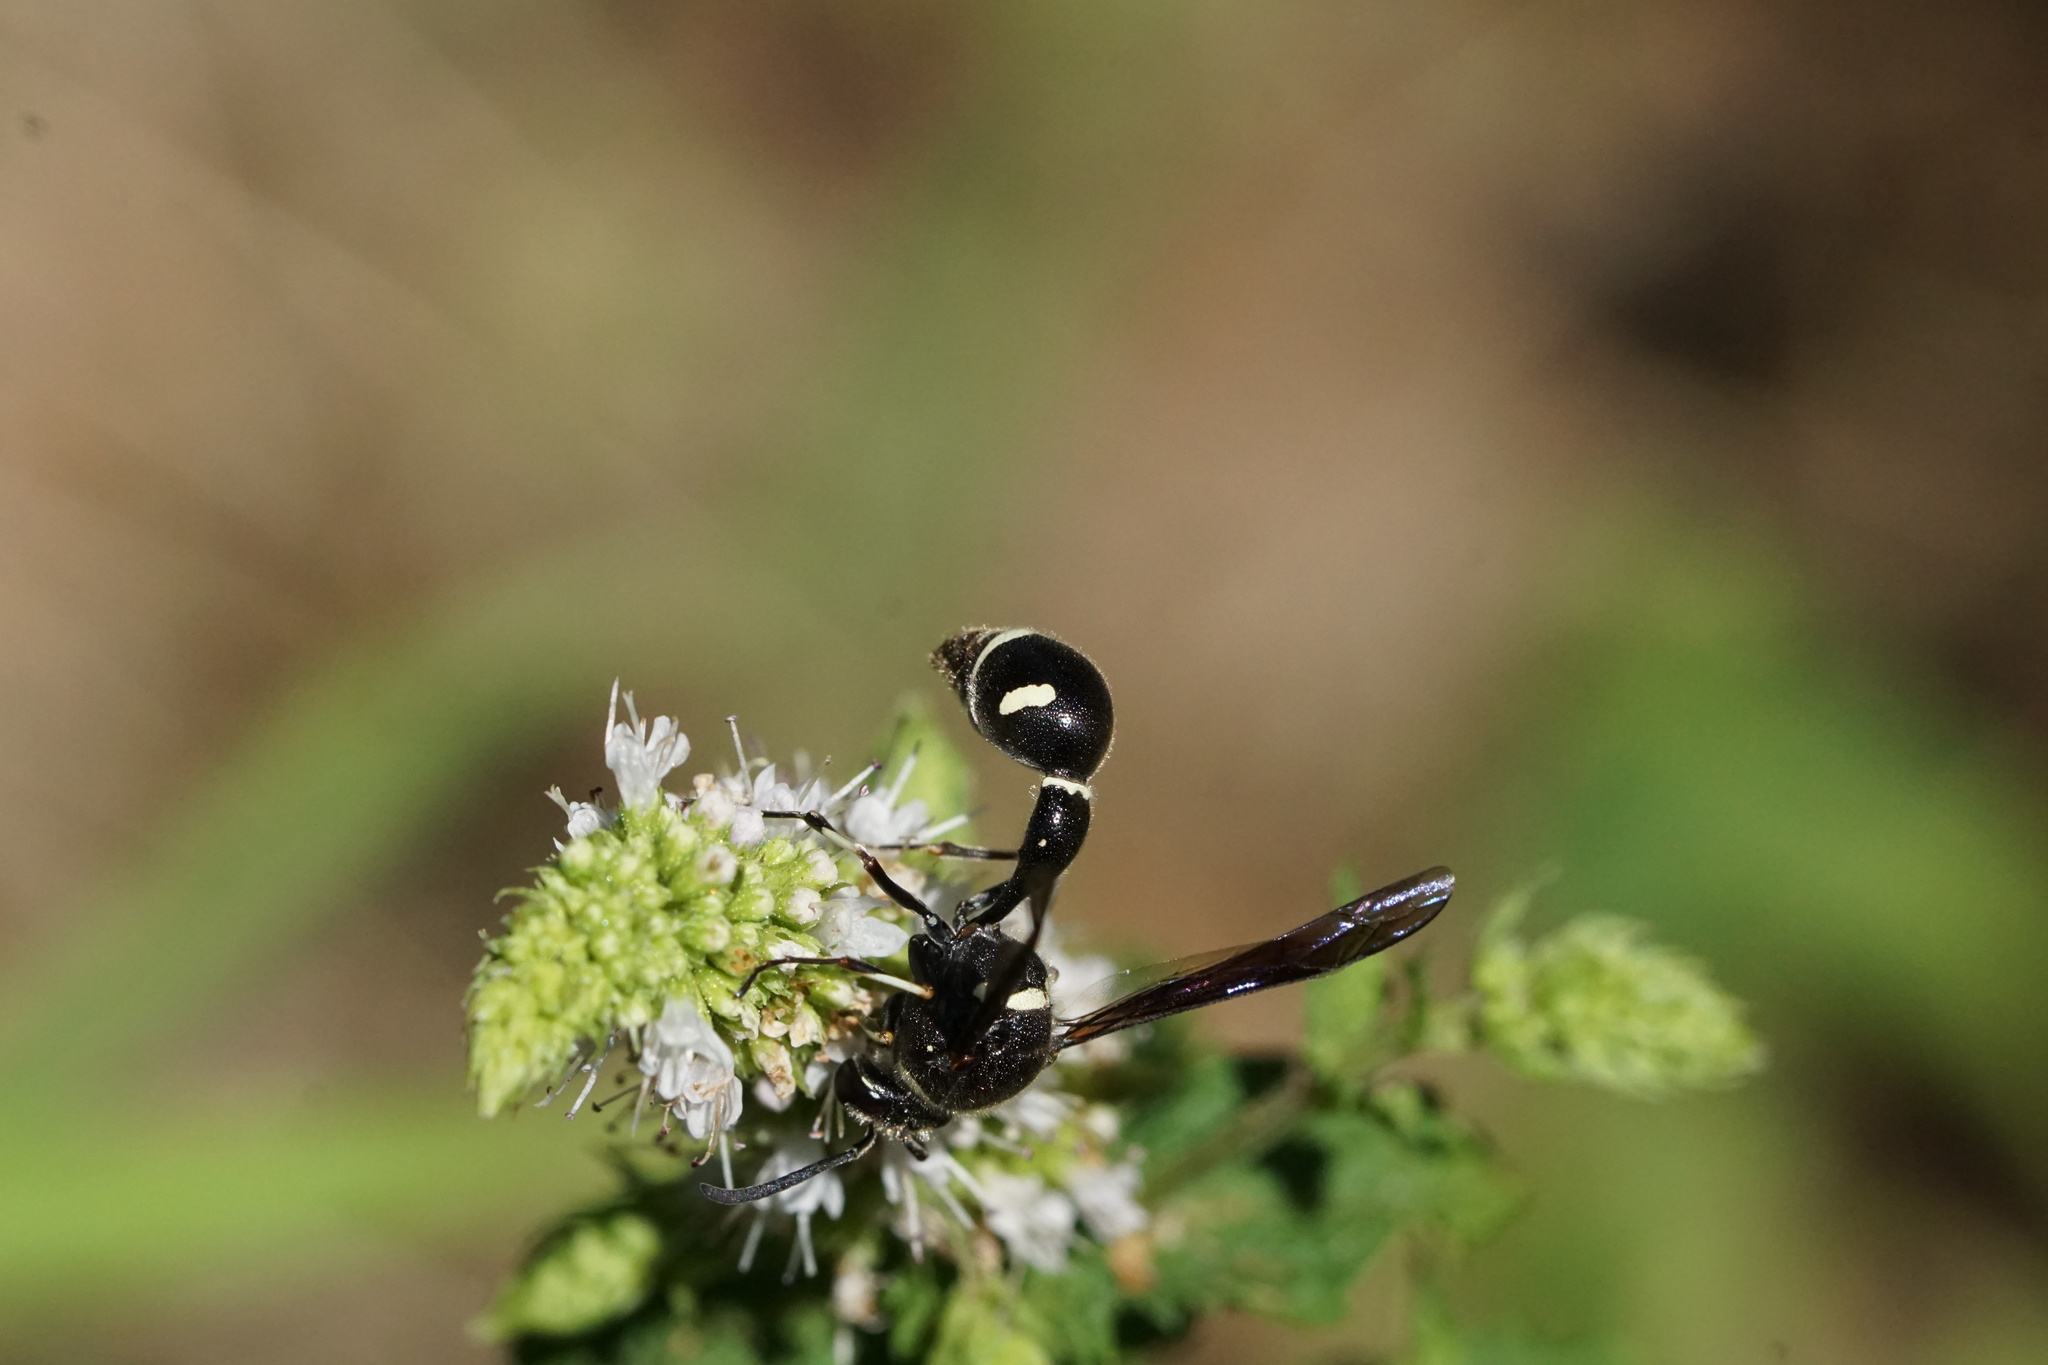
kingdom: Animalia
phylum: Arthropoda
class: Insecta
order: Hymenoptera
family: Vespidae
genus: Eumenes
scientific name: Eumenes fraternus
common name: Fraternal potter wasp
